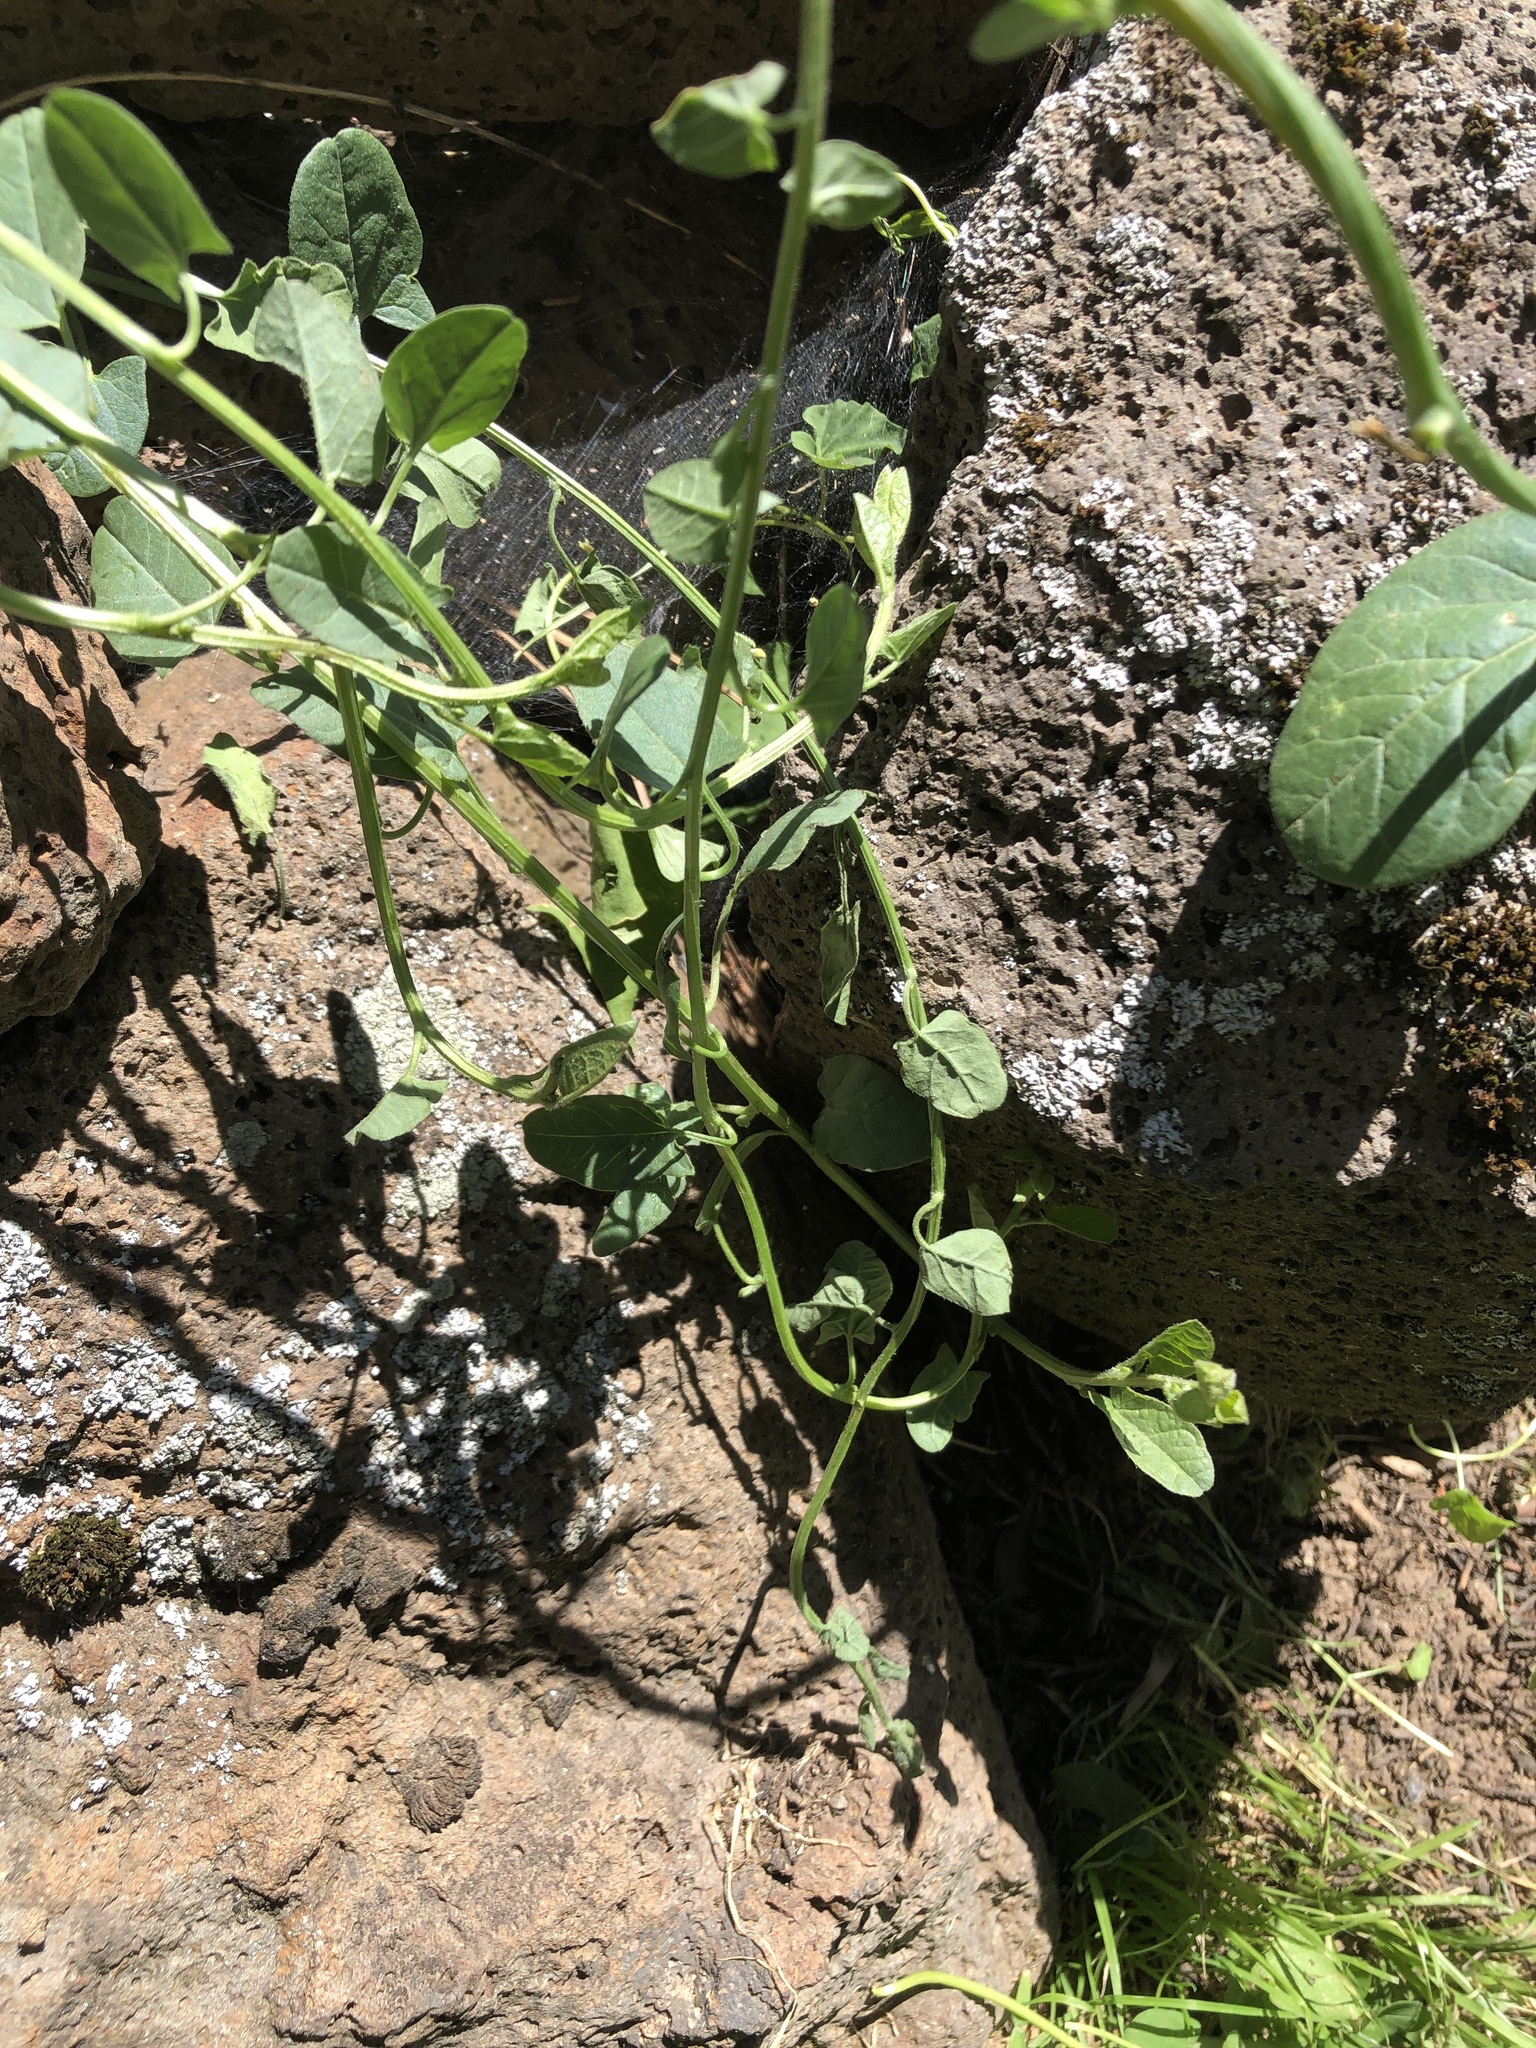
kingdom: Plantae
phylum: Tracheophyta
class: Magnoliopsida
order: Solanales
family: Convolvulaceae
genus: Convolvulus
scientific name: Convolvulus arvensis
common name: Field bindweed
